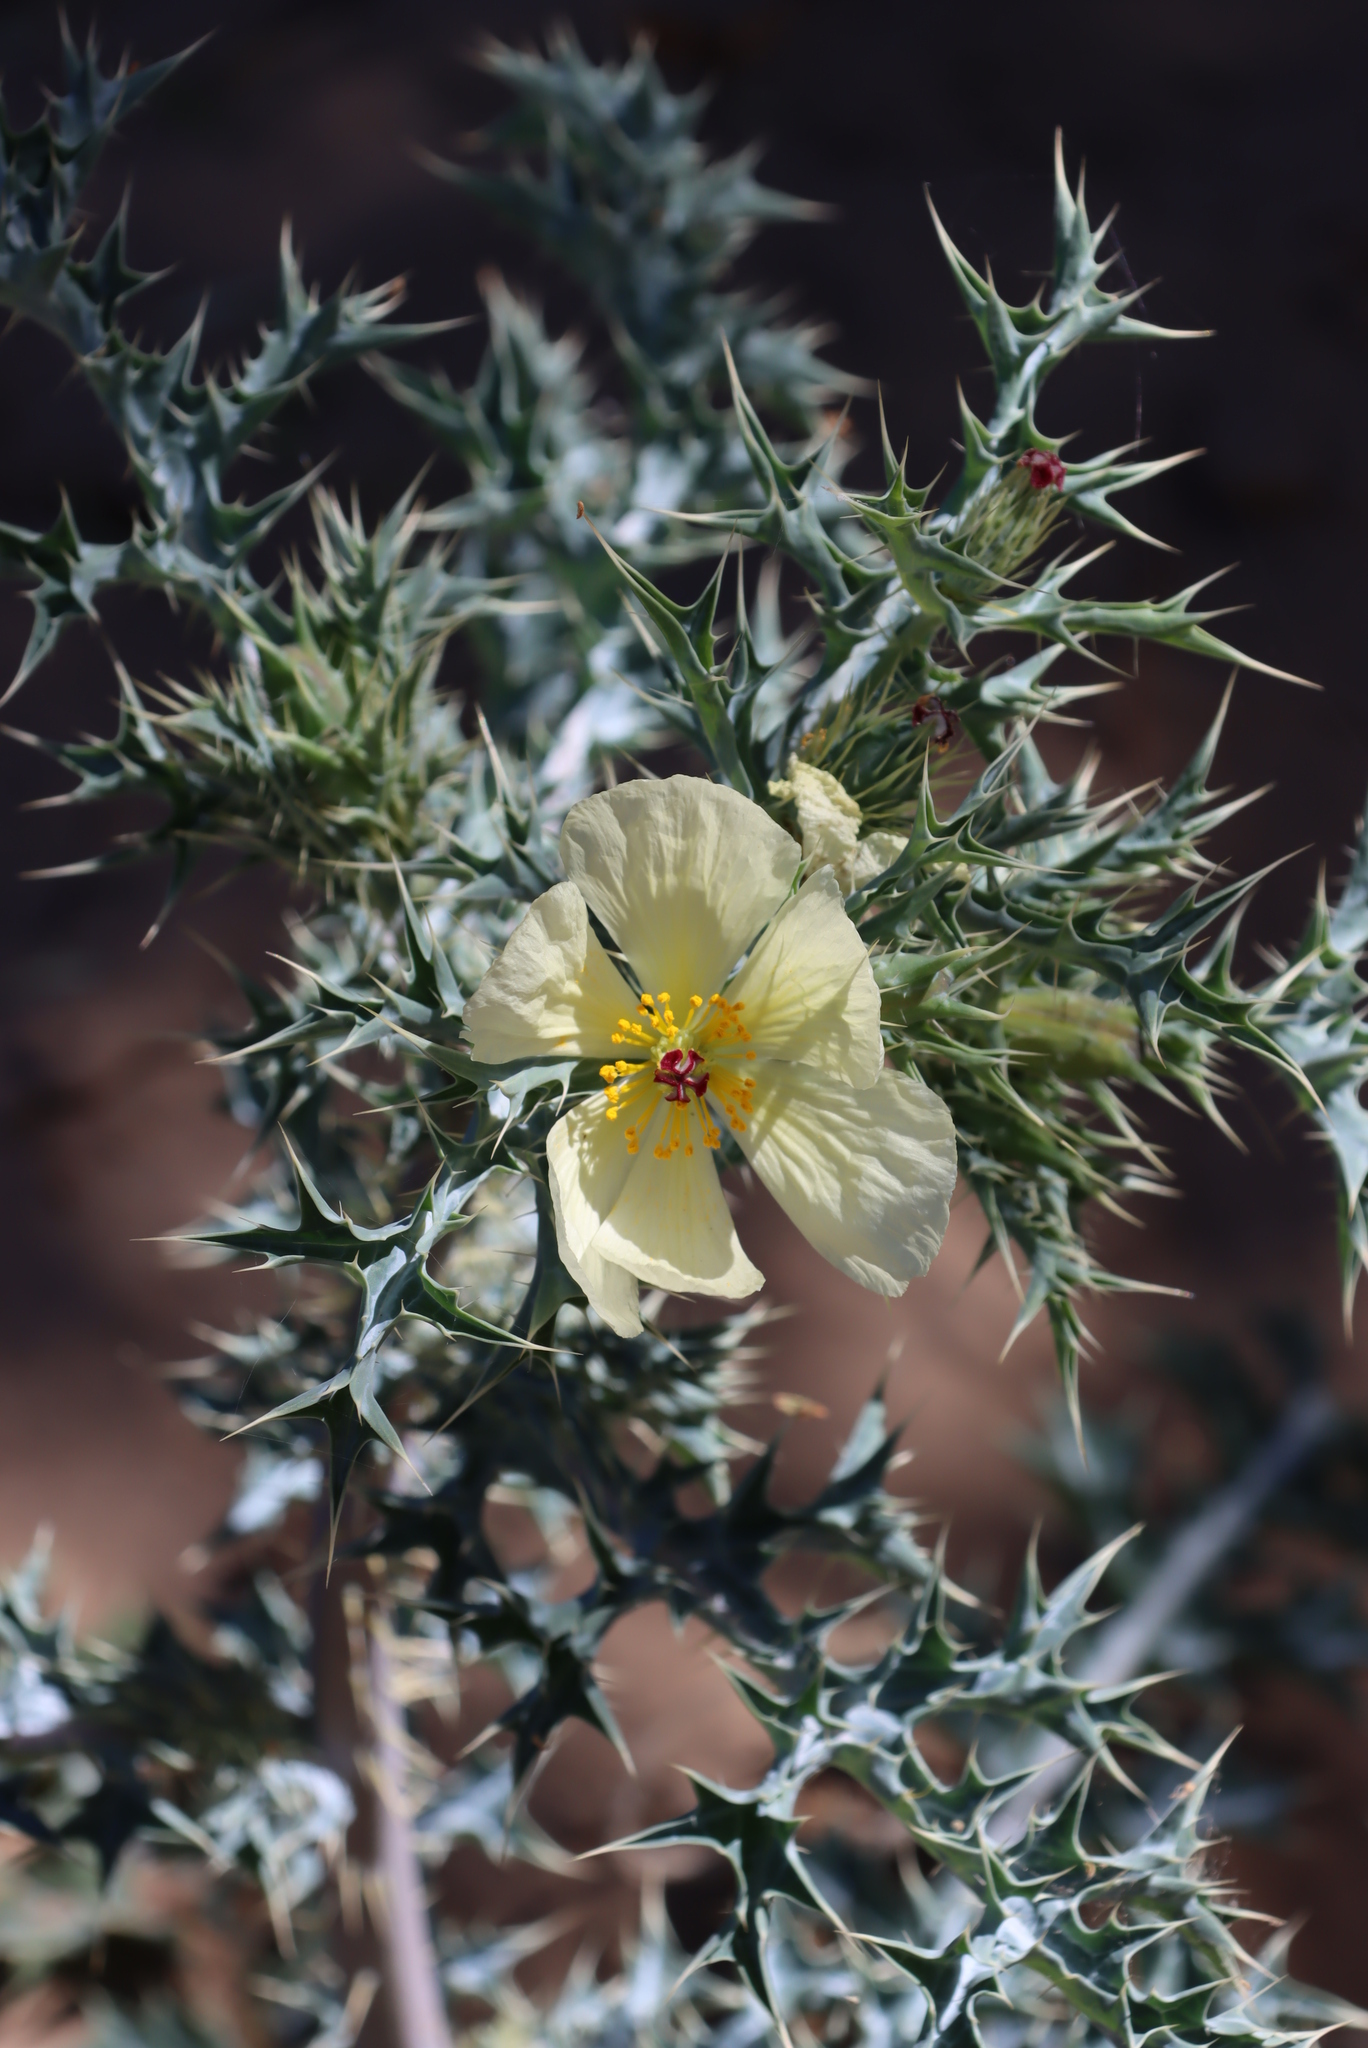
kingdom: Plantae
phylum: Tracheophyta
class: Magnoliopsida
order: Ranunculales
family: Papaveraceae
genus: Argemone
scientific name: Argemone ochroleuca
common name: White-flower mexican-poppy
